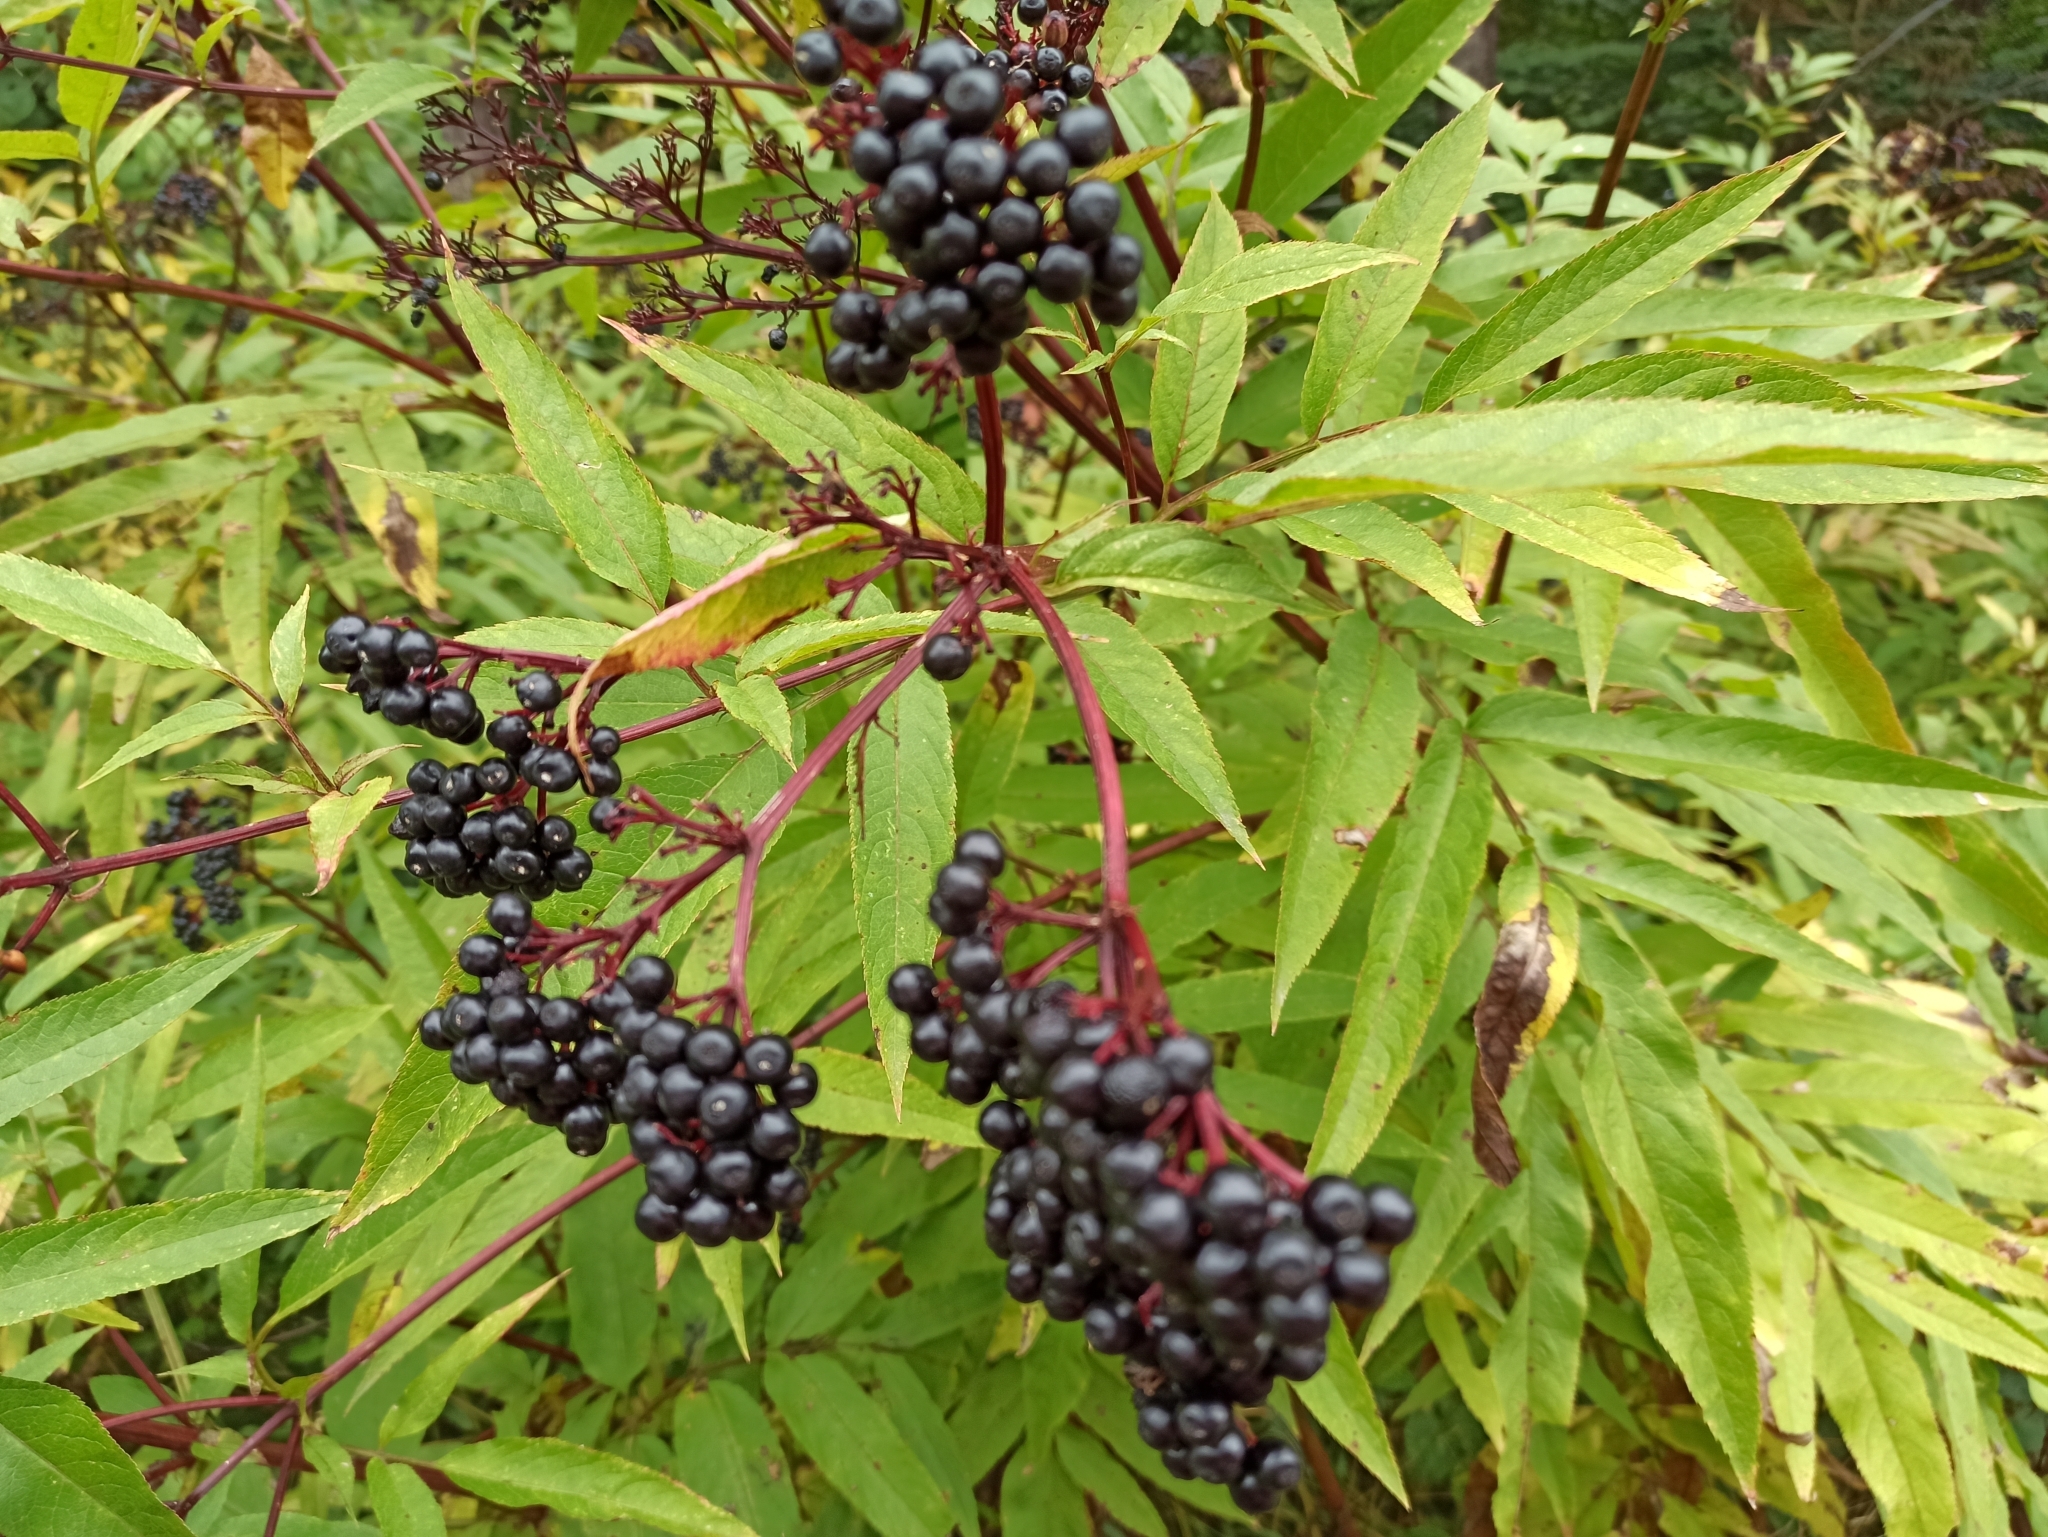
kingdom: Plantae
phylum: Tracheophyta
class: Magnoliopsida
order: Dipsacales
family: Viburnaceae
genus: Sambucus
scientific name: Sambucus ebulus
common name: Dwarf elder
